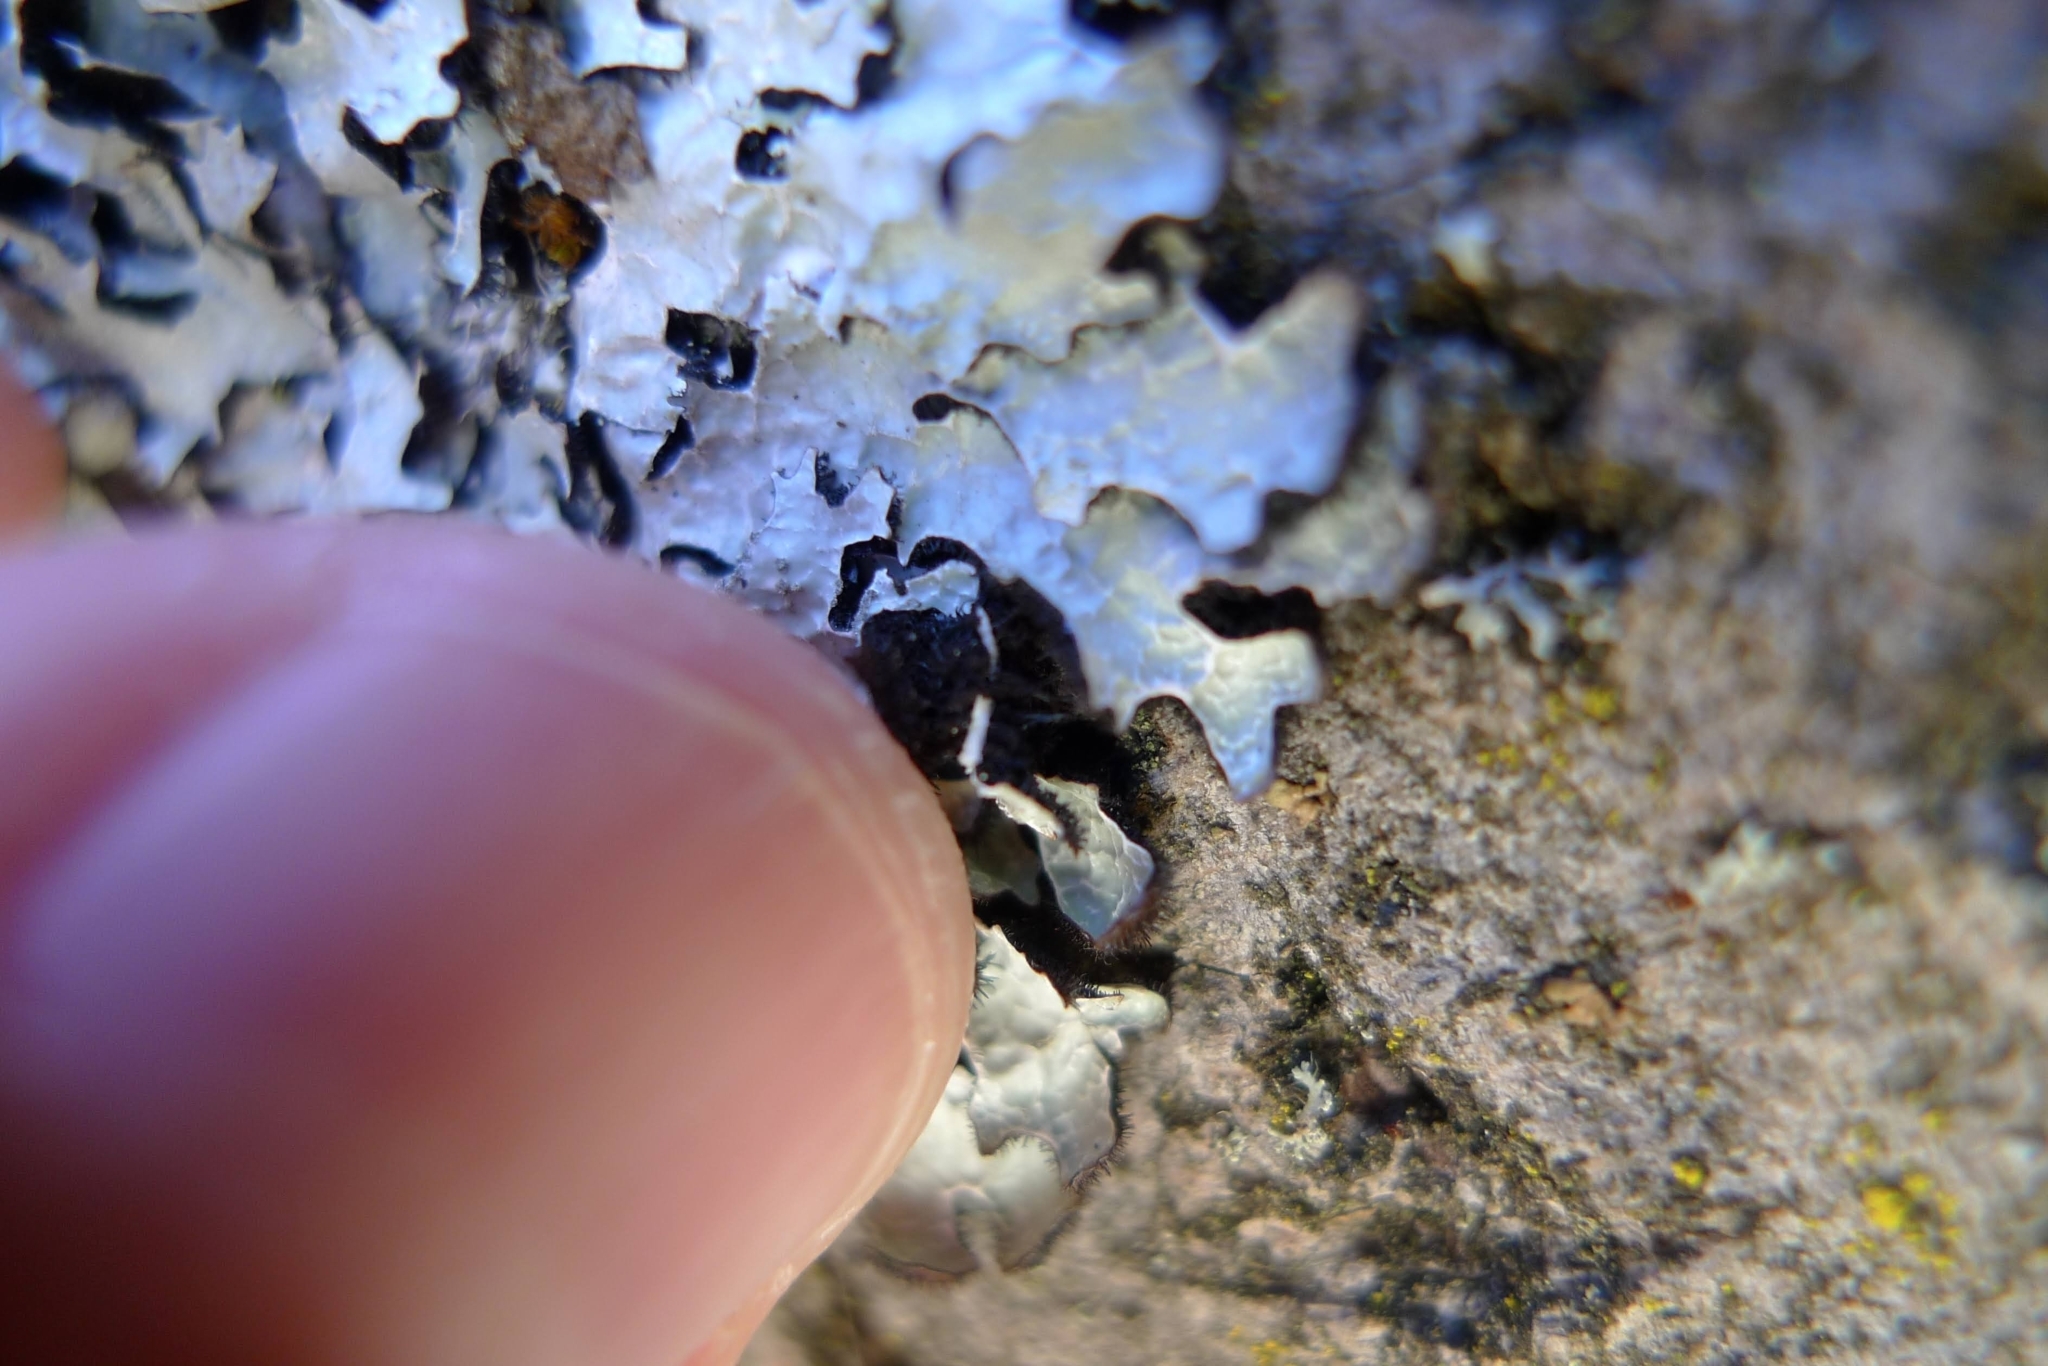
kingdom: Fungi
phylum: Ascomycota
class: Lecanoromycetes
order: Lecanorales
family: Parmeliaceae
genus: Parmelia
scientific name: Parmelia sulcata
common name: Netted shield lichen
